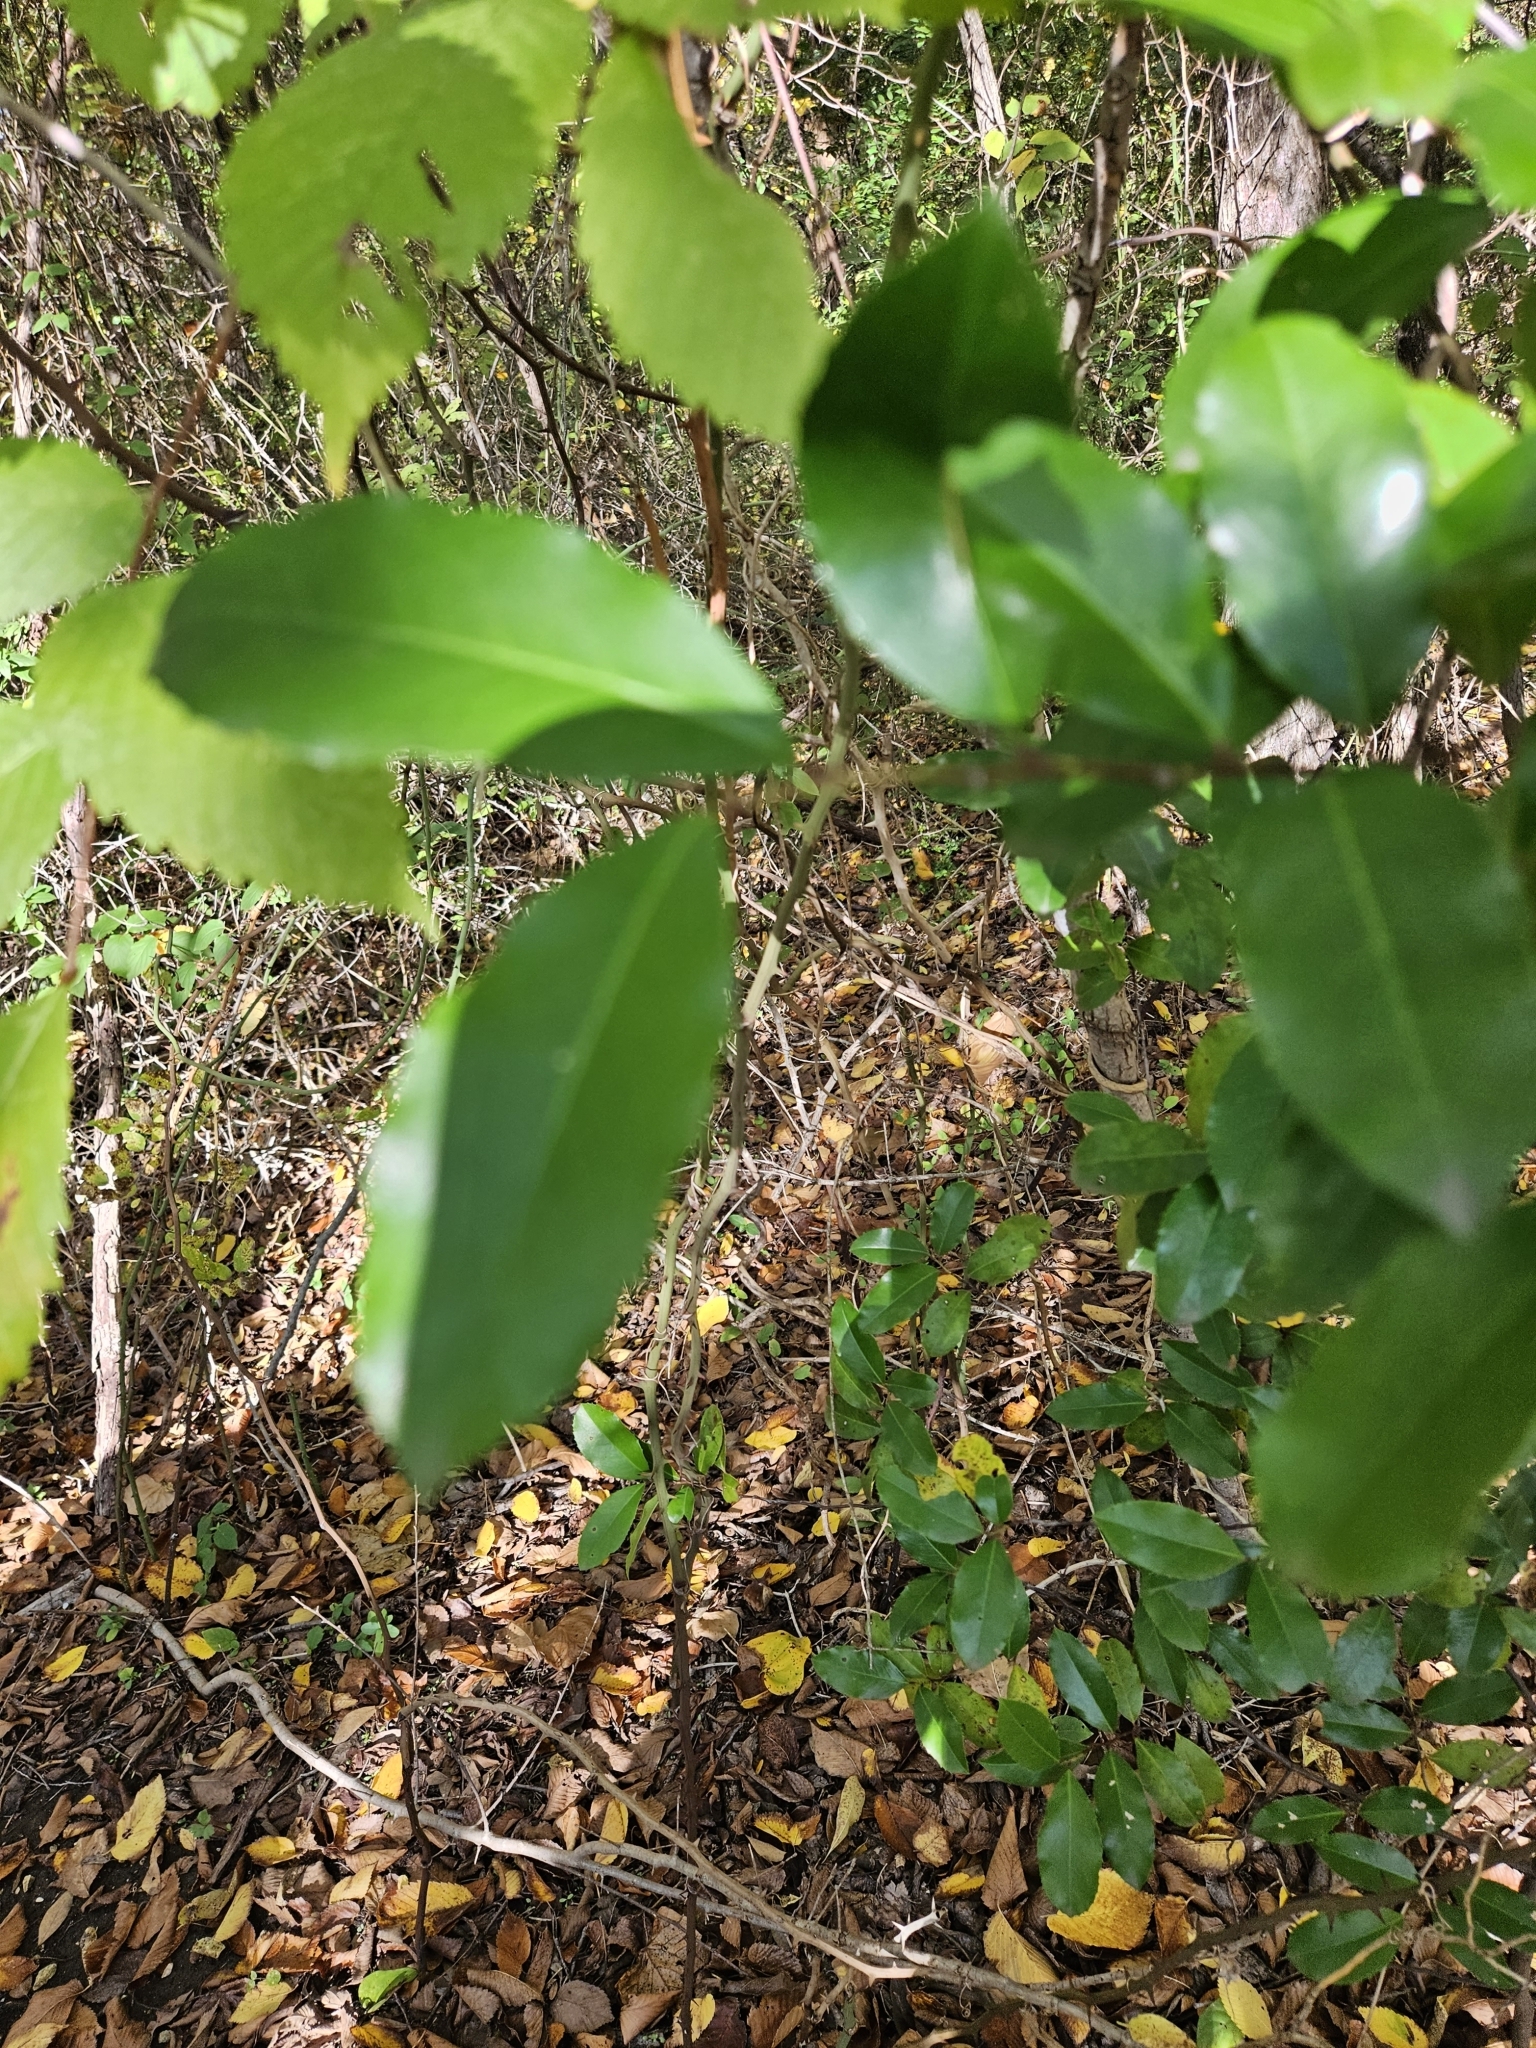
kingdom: Plantae
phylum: Tracheophyta
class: Magnoliopsida
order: Rosales
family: Rosaceae
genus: Prunus
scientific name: Prunus caroliniana
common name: Carolina laurel cherry
